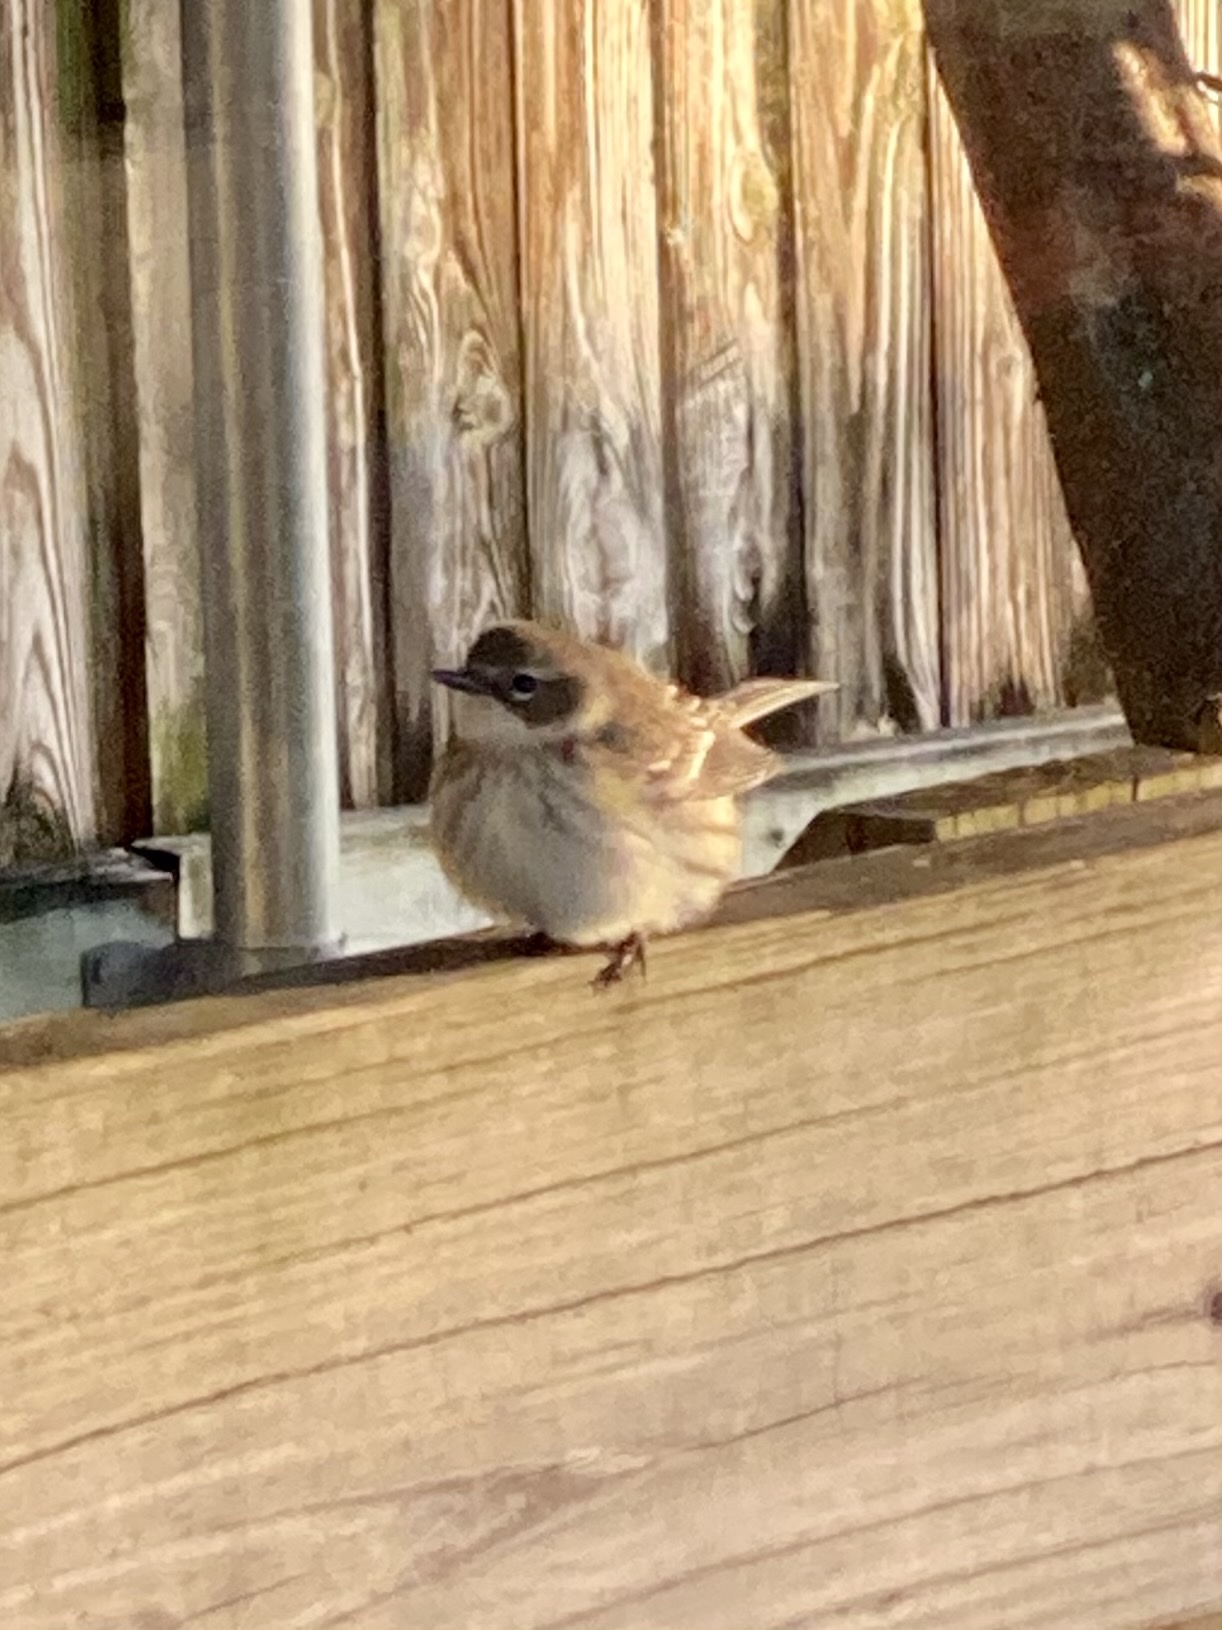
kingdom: Animalia
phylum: Chordata
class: Aves
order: Passeriformes
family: Parulidae
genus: Setophaga
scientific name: Setophaga coronata
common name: Myrtle warbler
